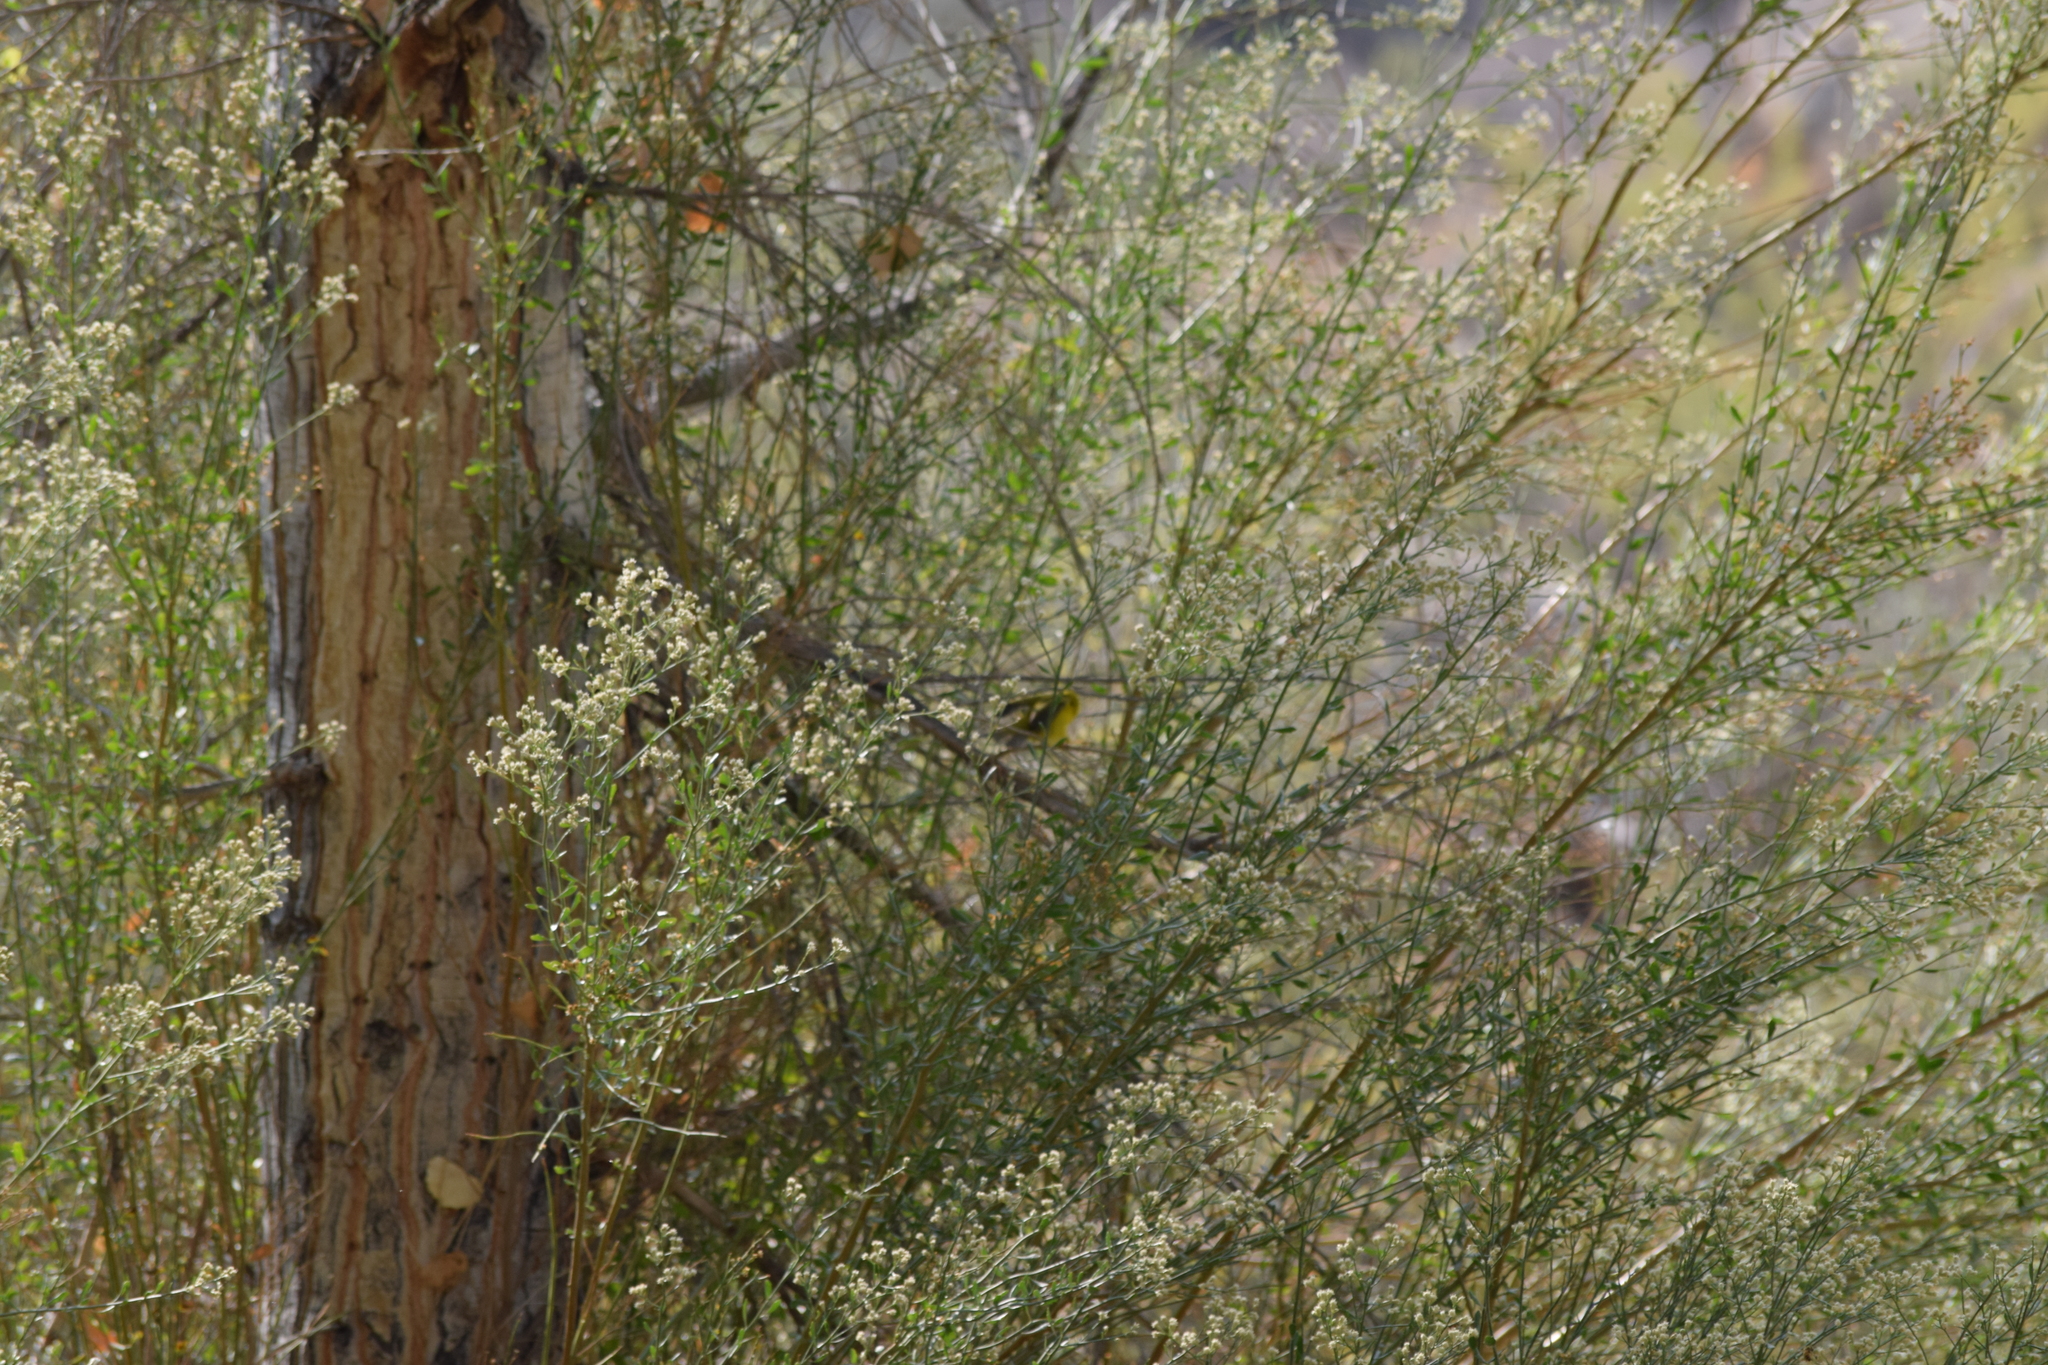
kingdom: Animalia
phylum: Chordata
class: Aves
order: Passeriformes
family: Parulidae
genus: Cardellina
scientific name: Cardellina pusilla
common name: Wilson's warbler
